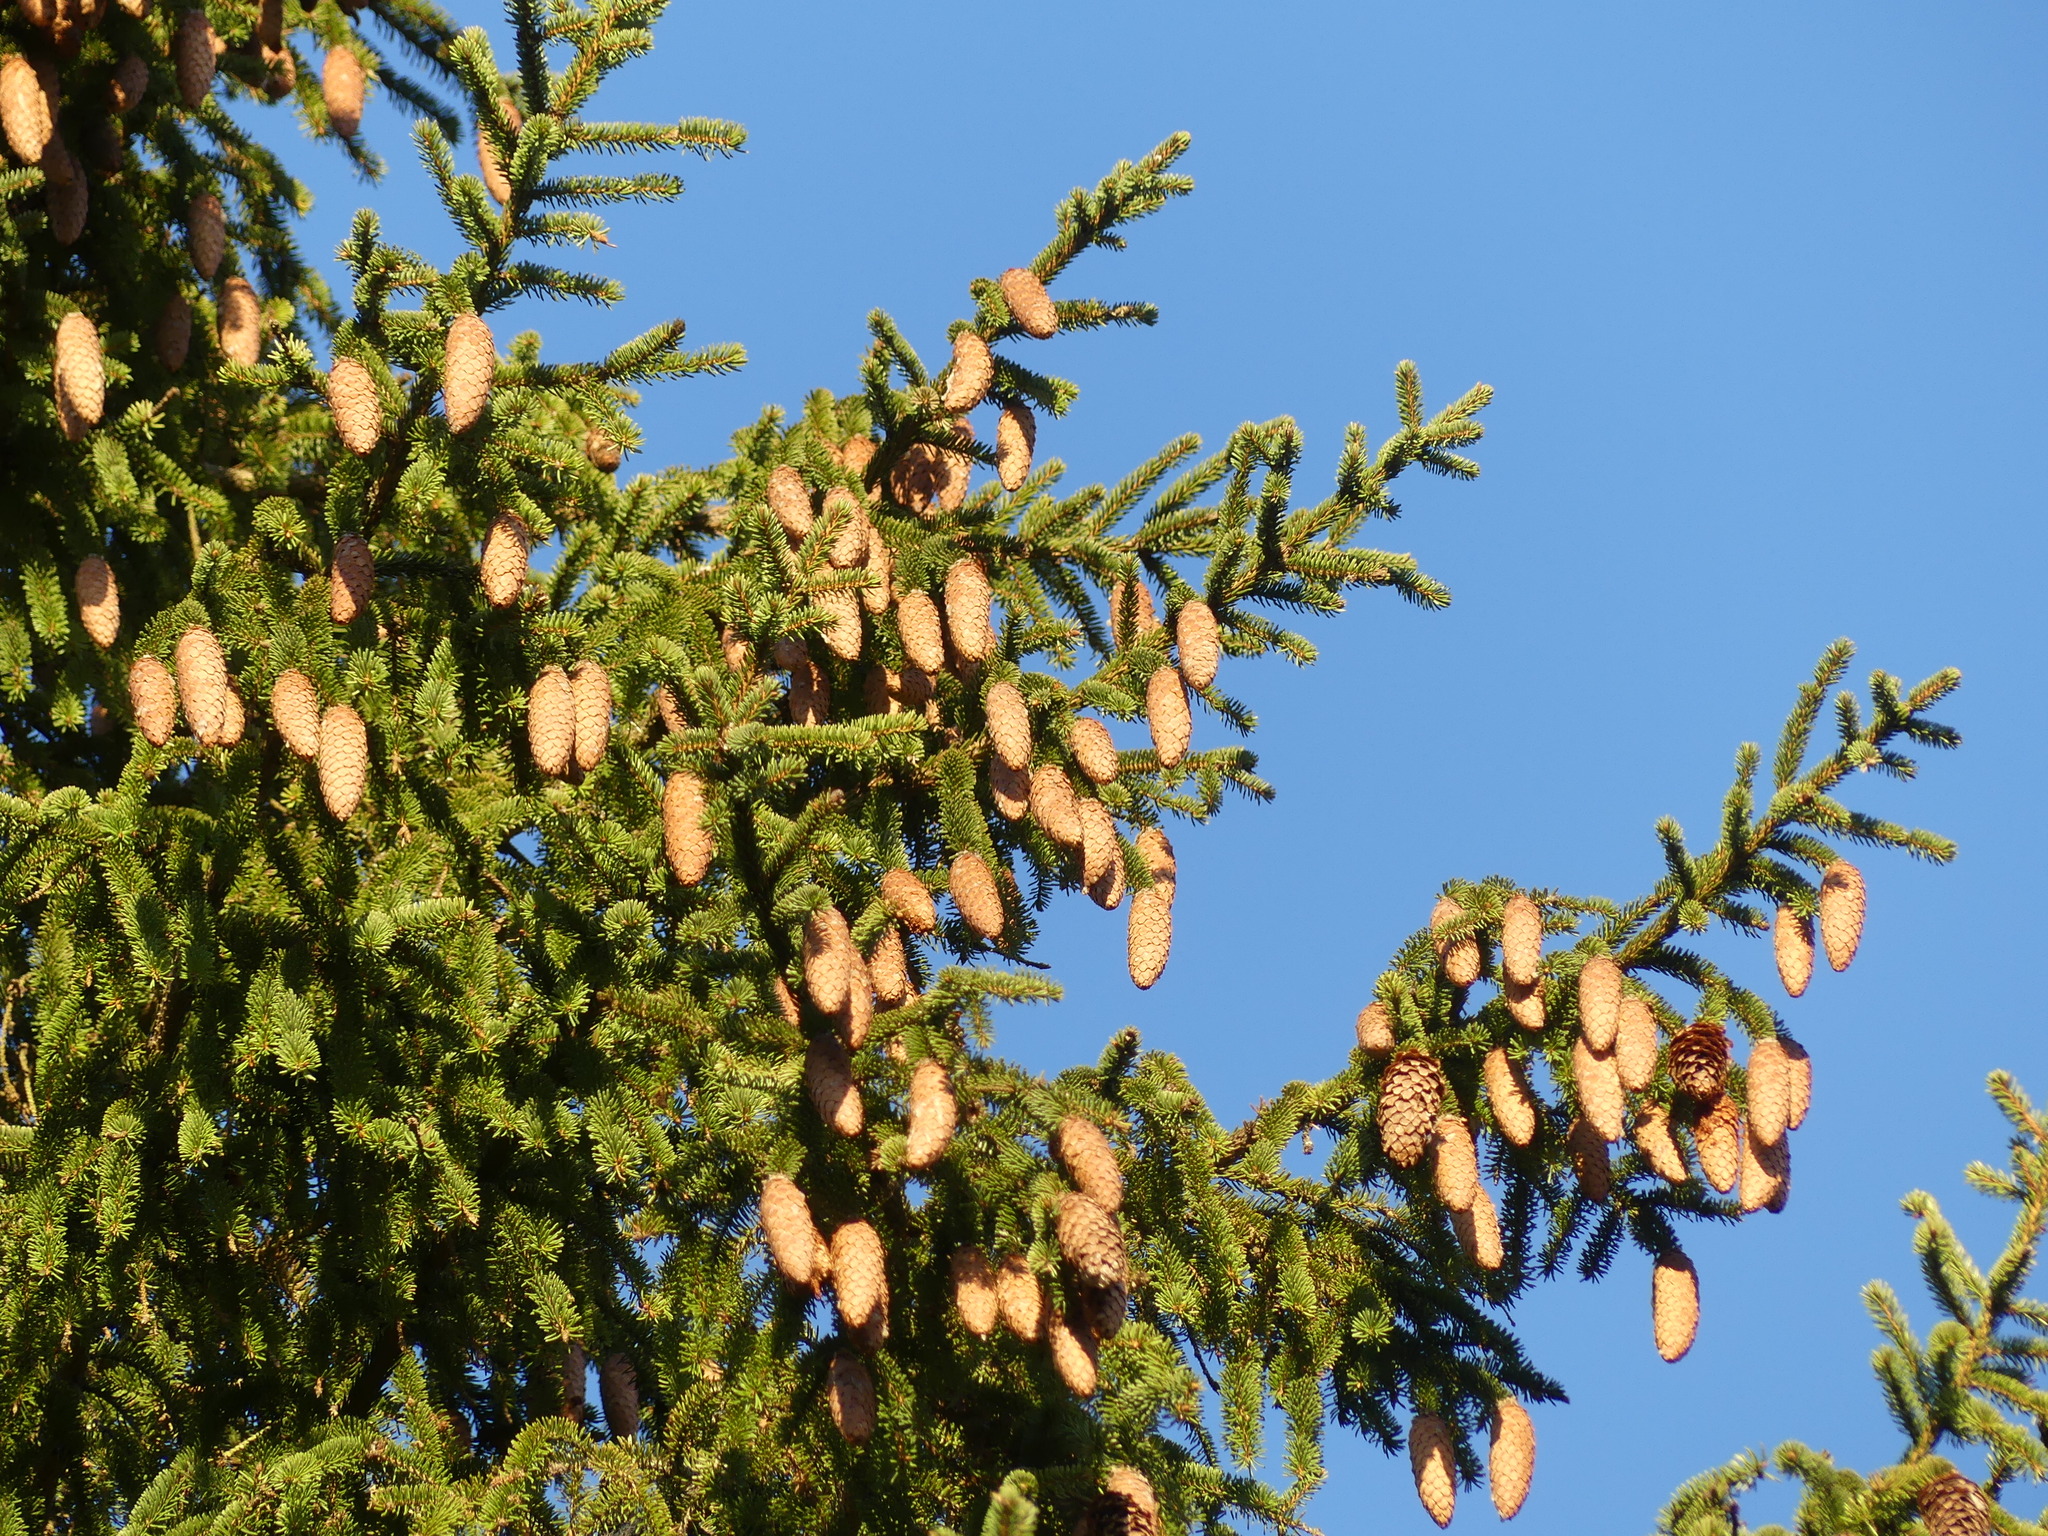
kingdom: Plantae
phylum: Tracheophyta
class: Pinopsida
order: Pinales
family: Pinaceae
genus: Picea
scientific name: Picea abies
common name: Norway spruce
